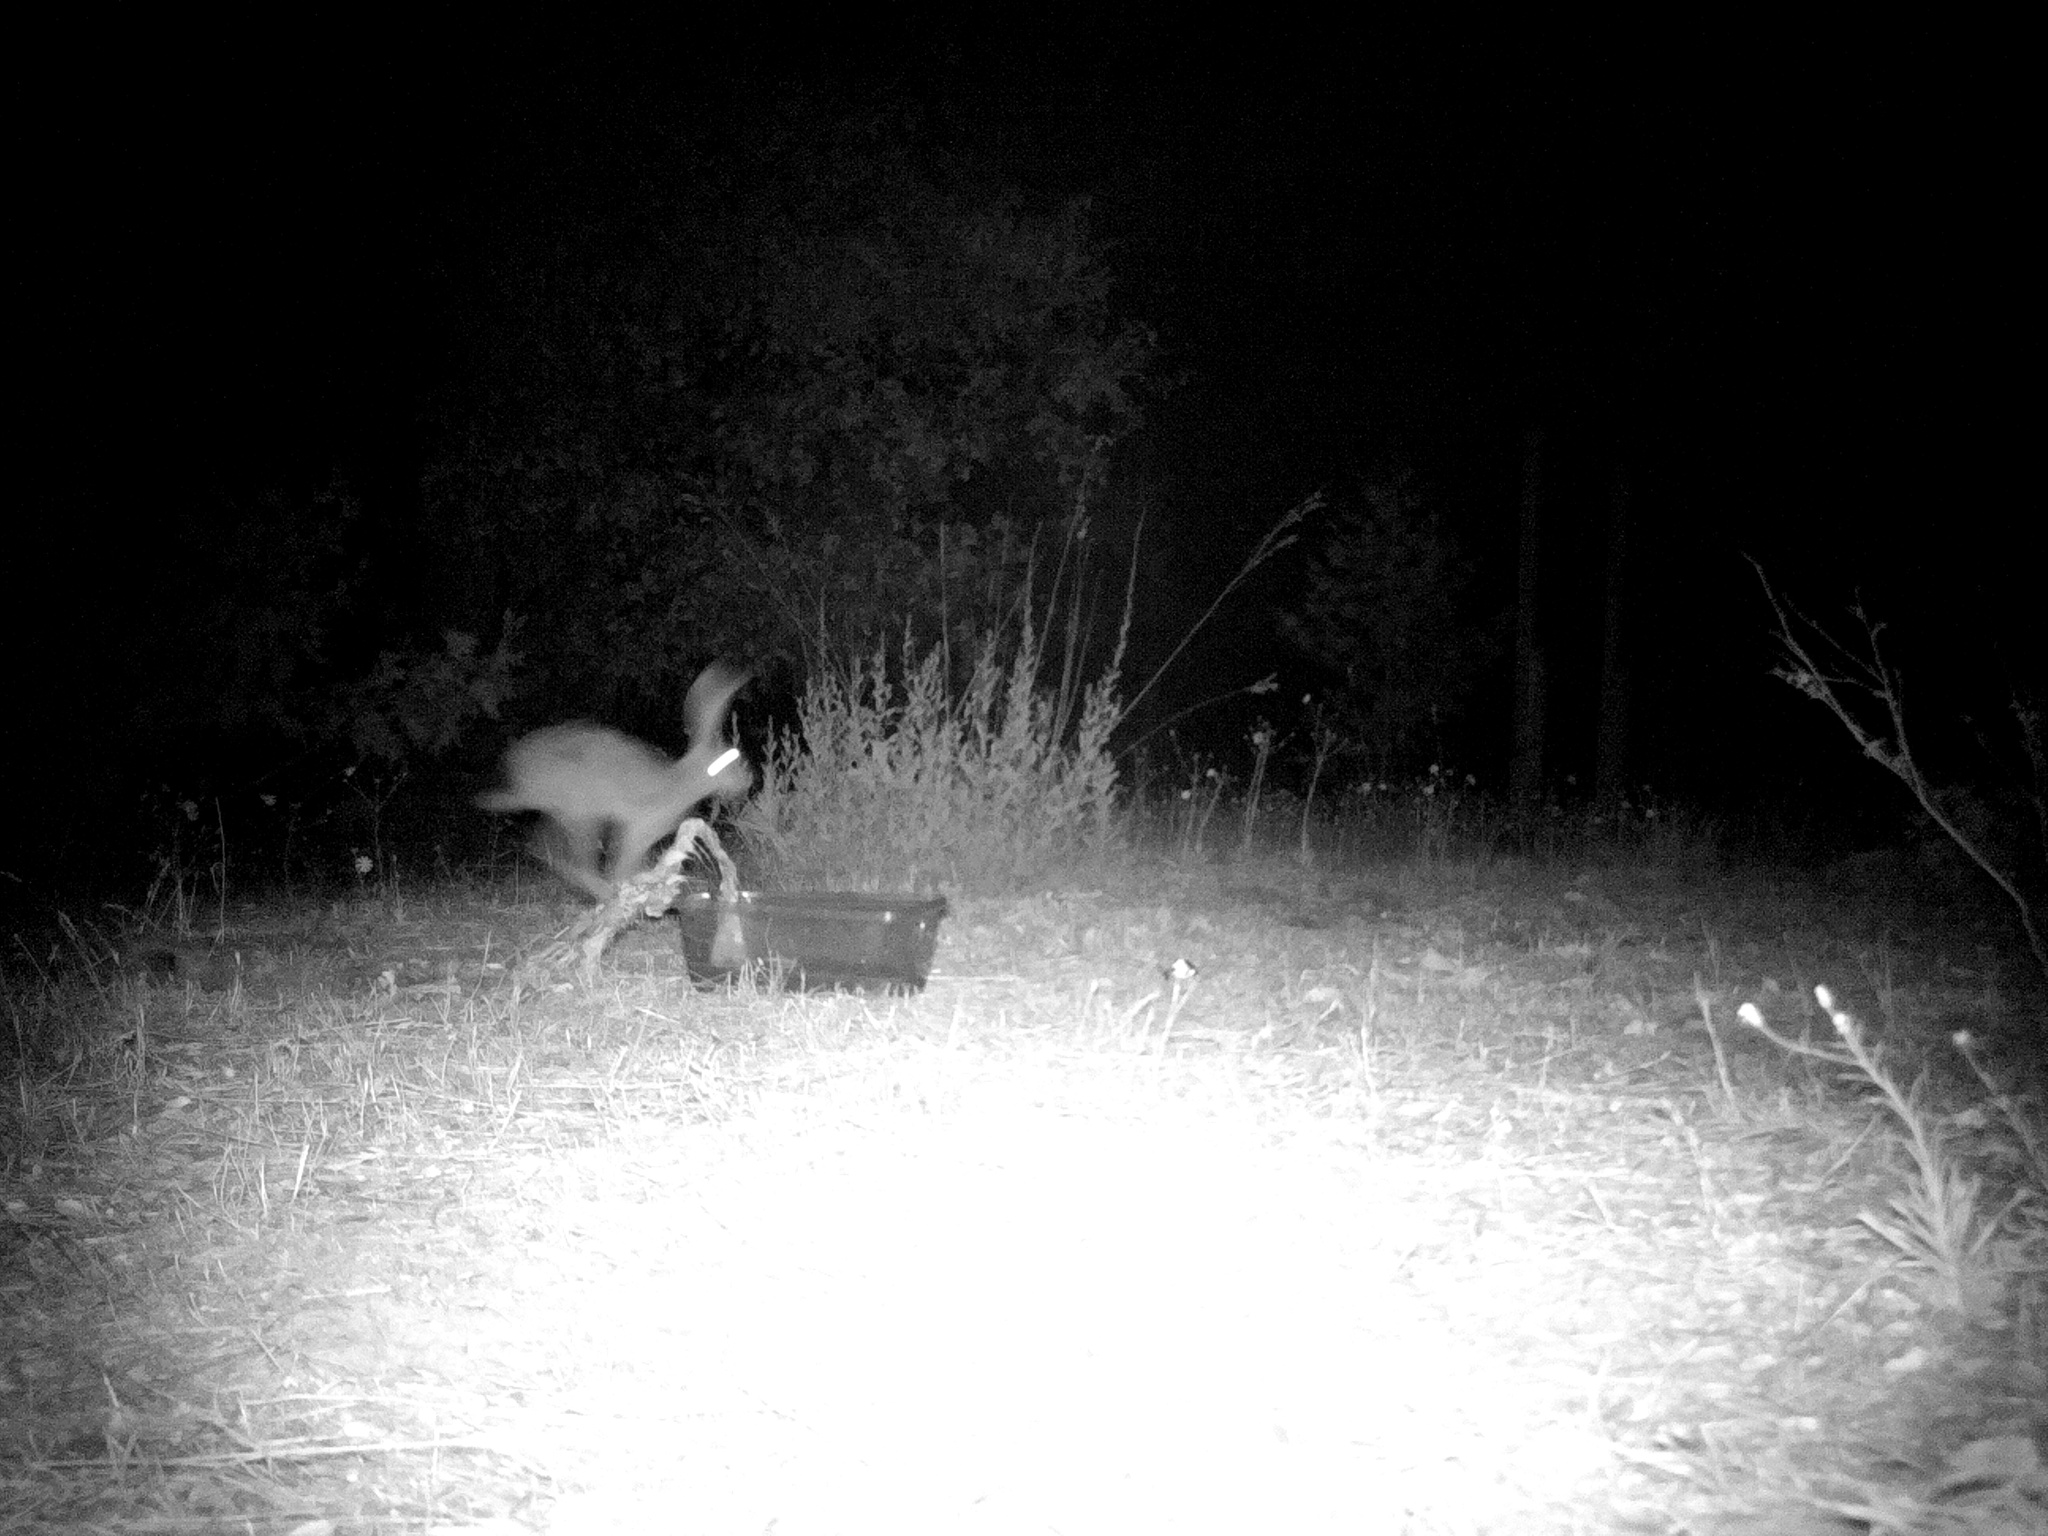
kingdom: Animalia
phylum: Chordata
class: Mammalia
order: Lagomorpha
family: Leporidae
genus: Lepus
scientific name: Lepus californicus
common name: Black-tailed jackrabbit
